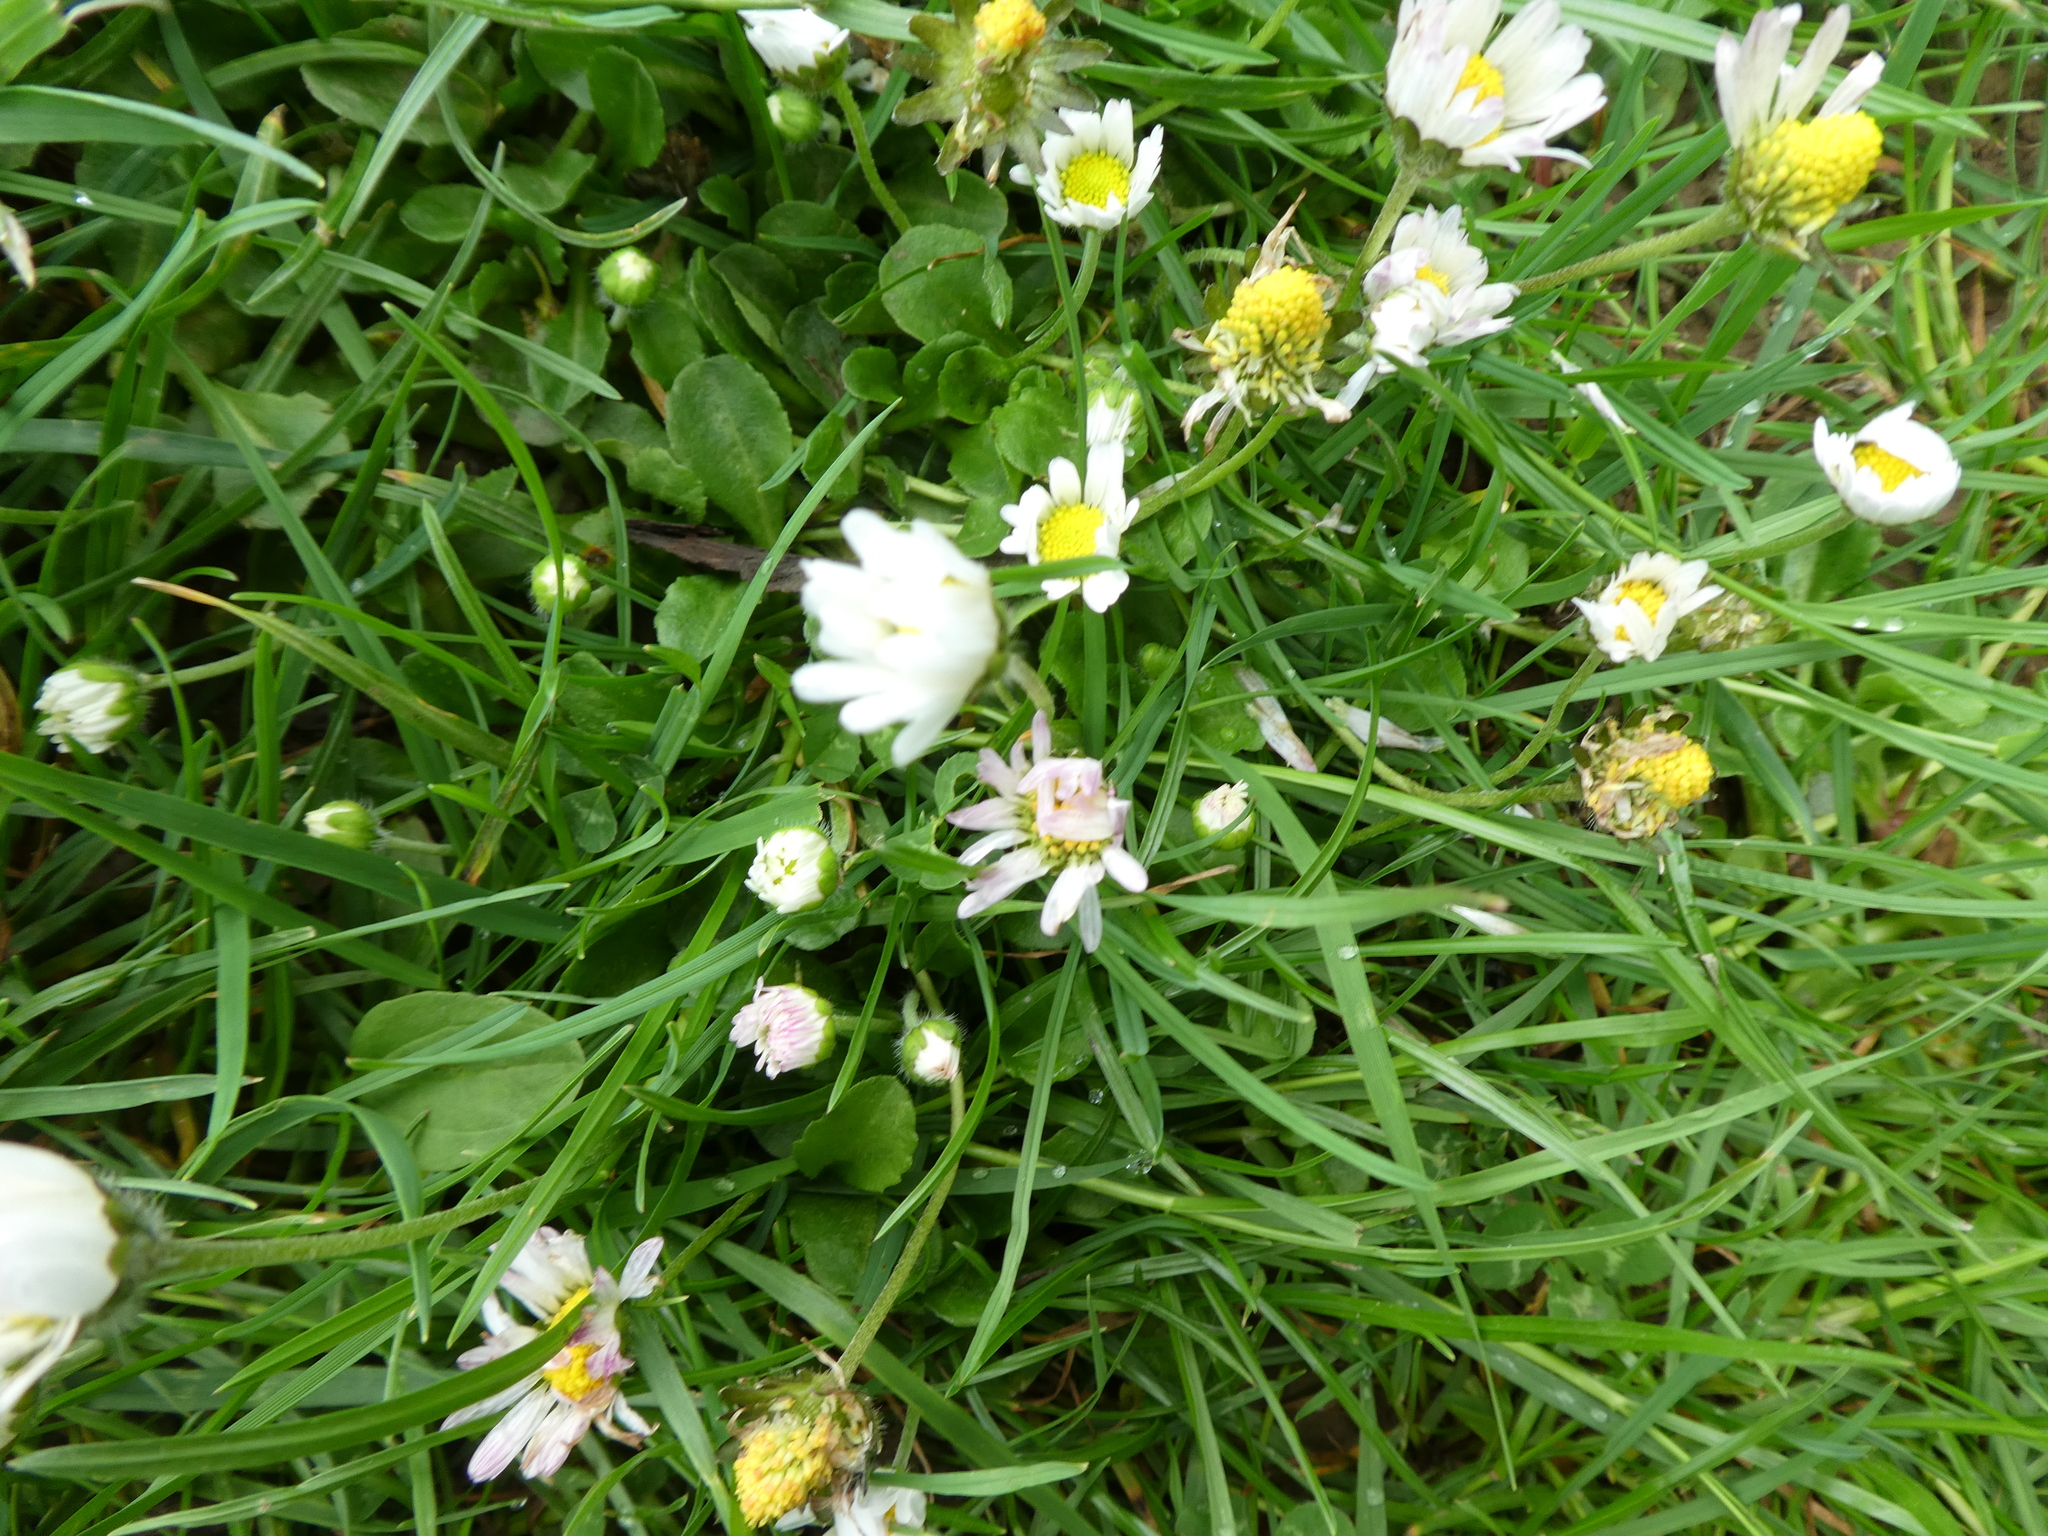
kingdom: Plantae
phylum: Tracheophyta
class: Magnoliopsida
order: Asterales
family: Asteraceae
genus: Bellis
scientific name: Bellis perennis
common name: Lawndaisy
